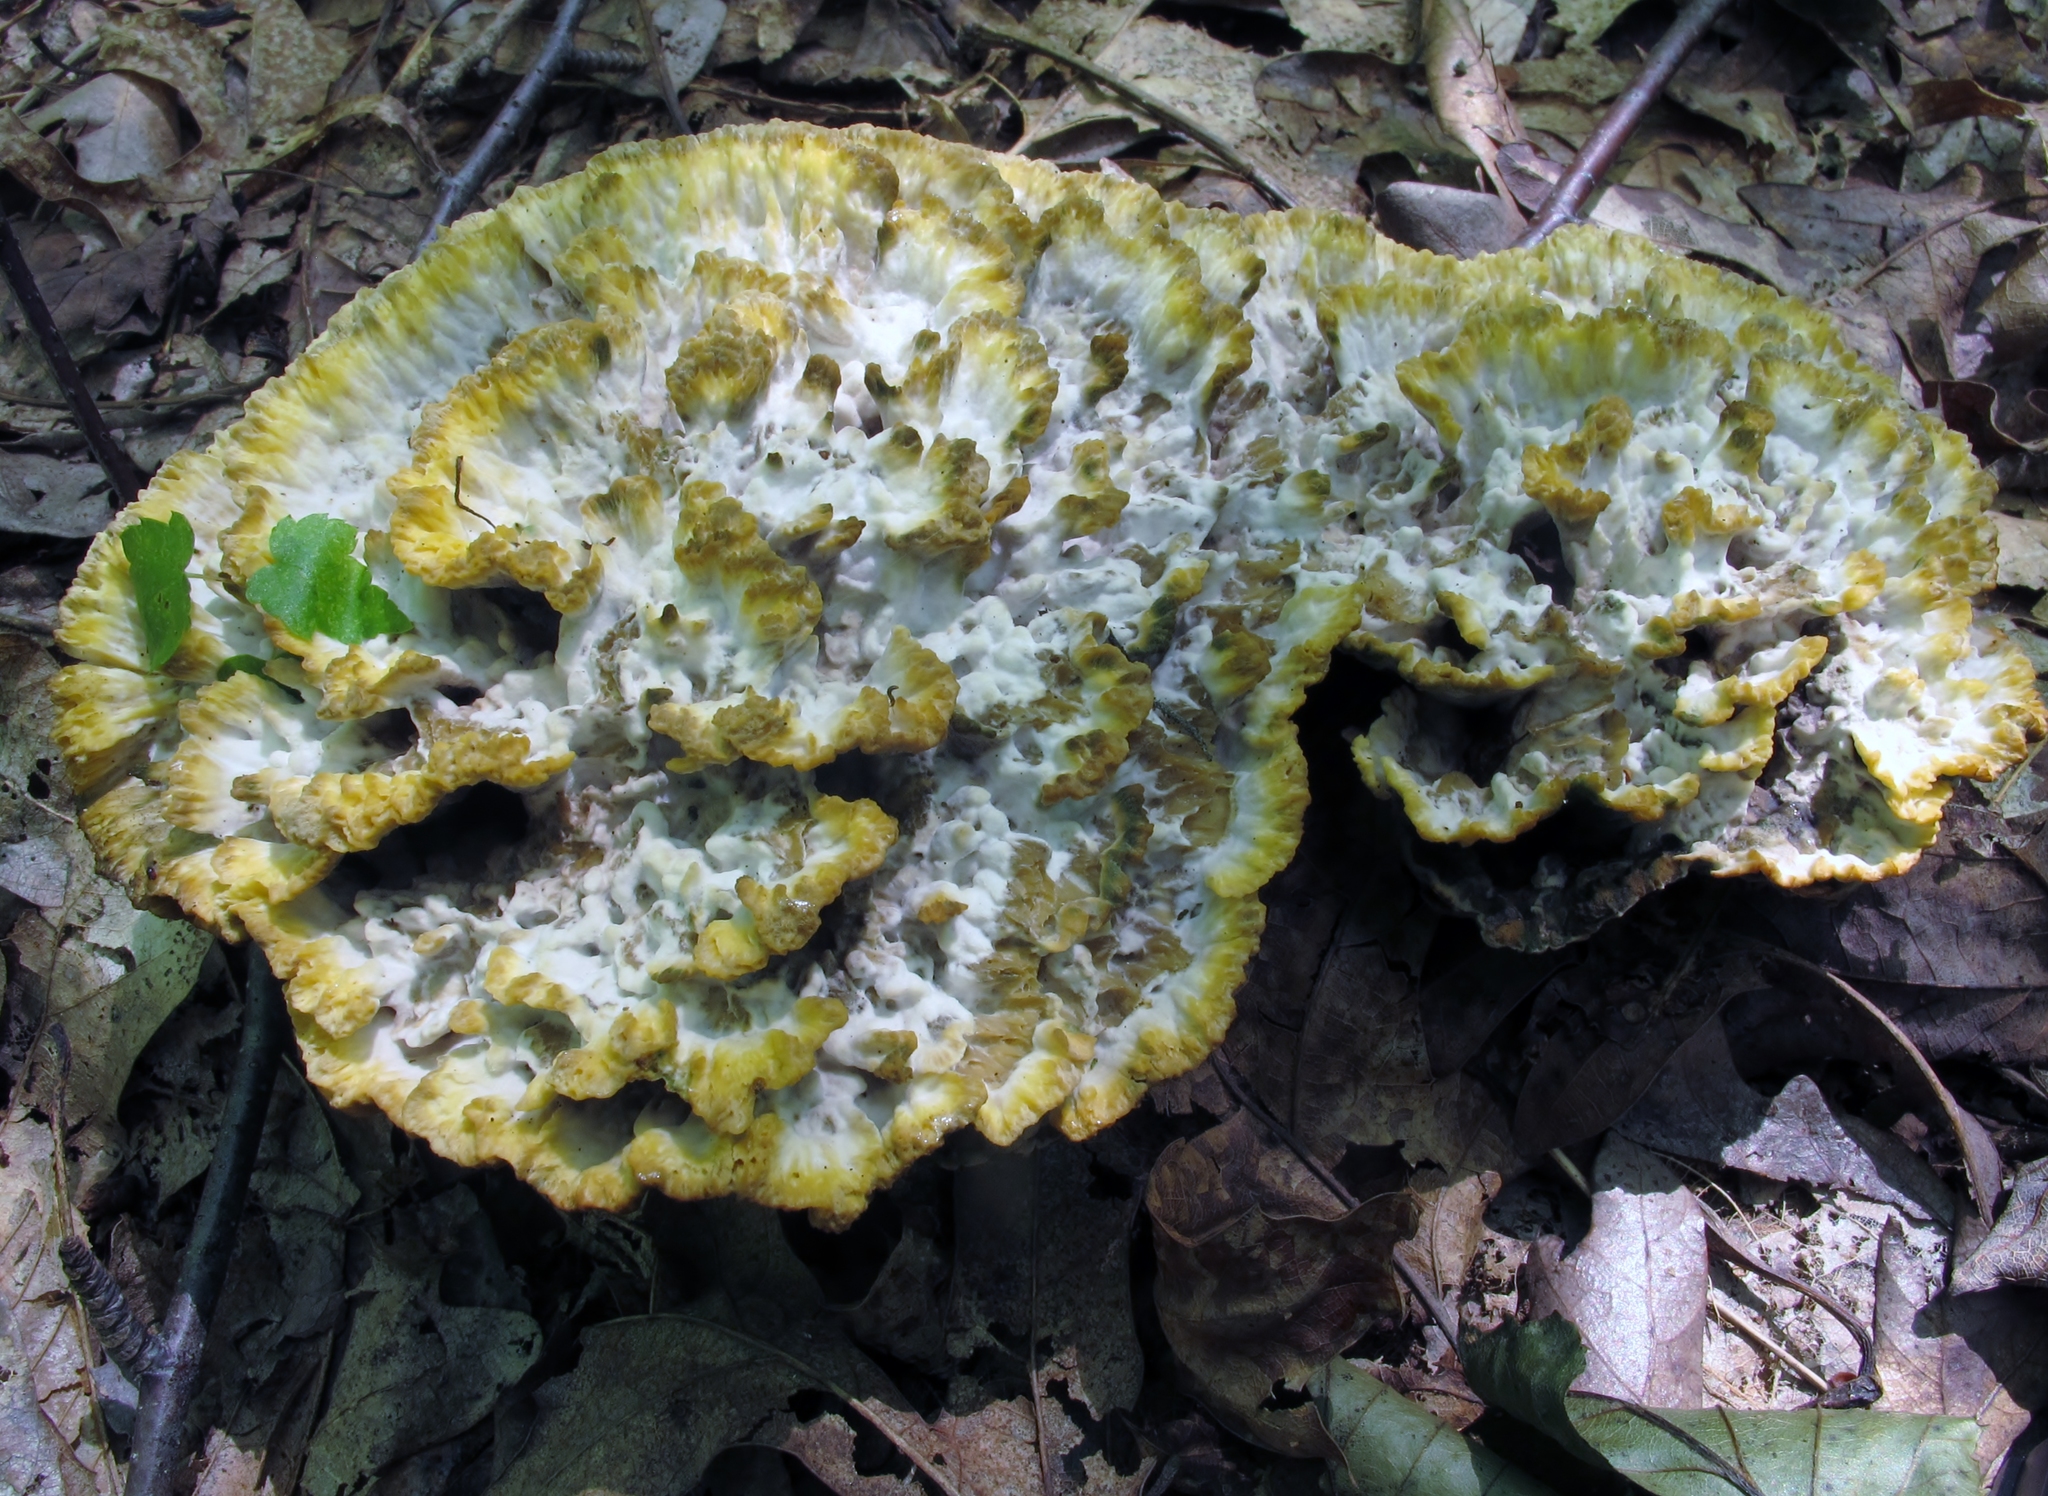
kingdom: Fungi
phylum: Basidiomycota
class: Agaricomycetes
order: Thelephorales
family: Thelephoraceae
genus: Thelephora
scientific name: Thelephora vialis
